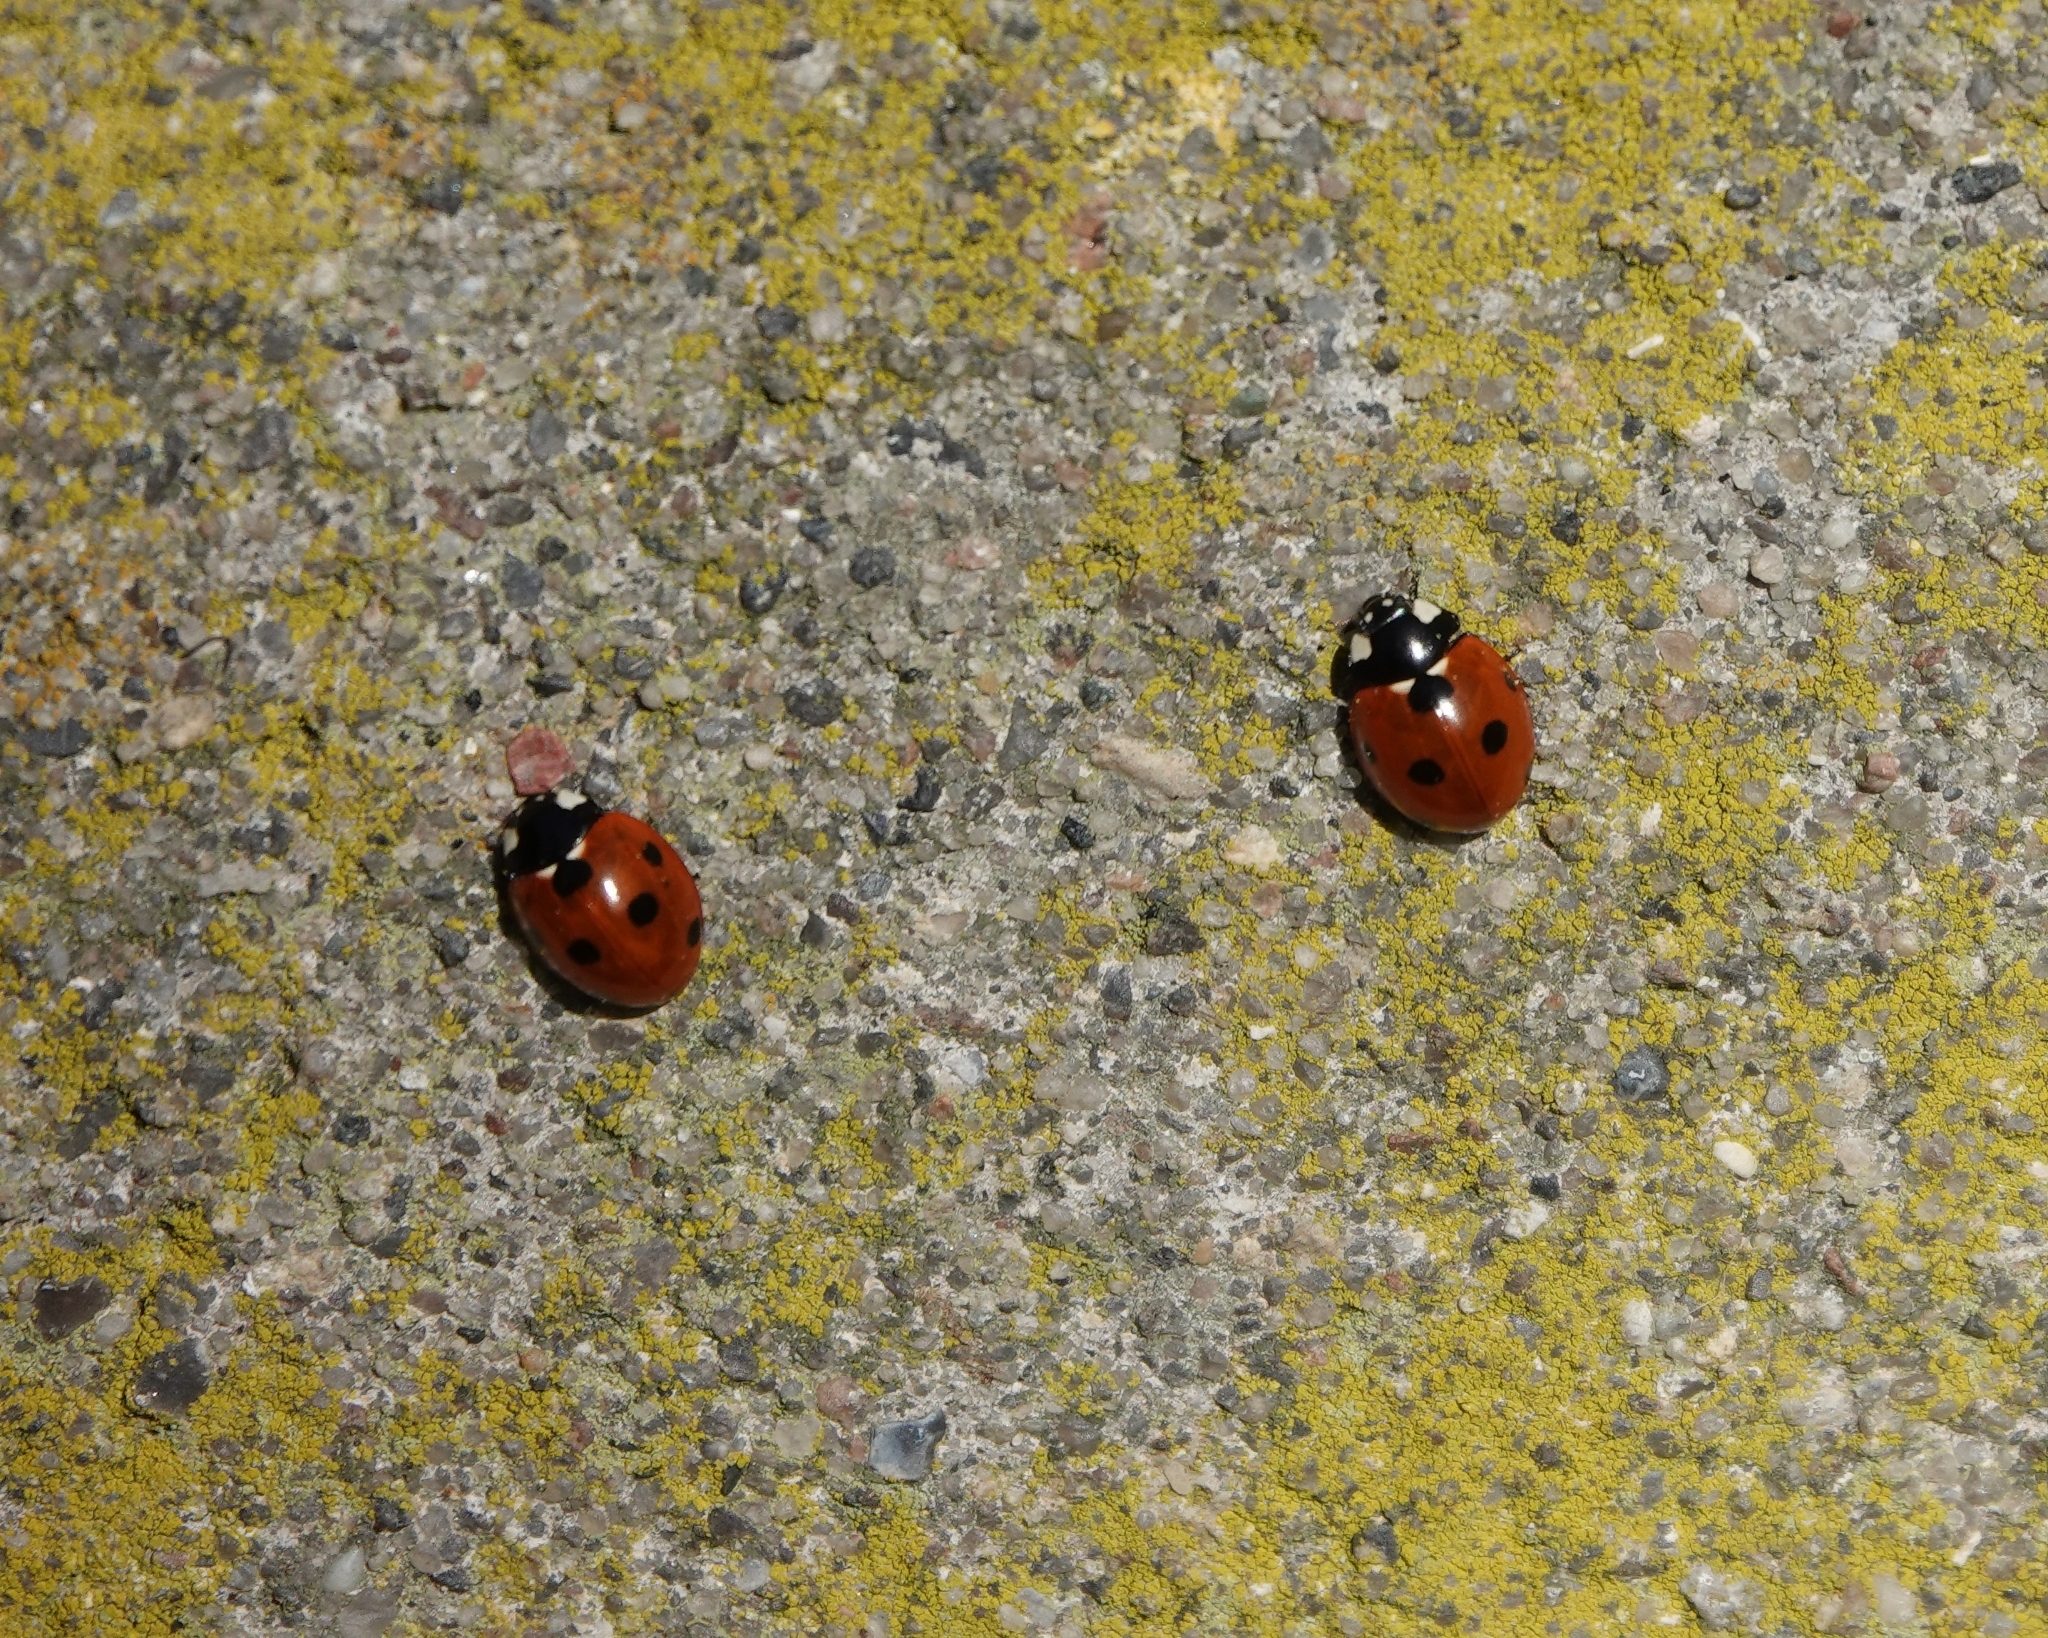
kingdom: Animalia
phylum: Arthropoda
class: Insecta
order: Coleoptera
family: Coccinellidae
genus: Coccinella
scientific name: Coccinella septempunctata
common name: Sevenspotted lady beetle
